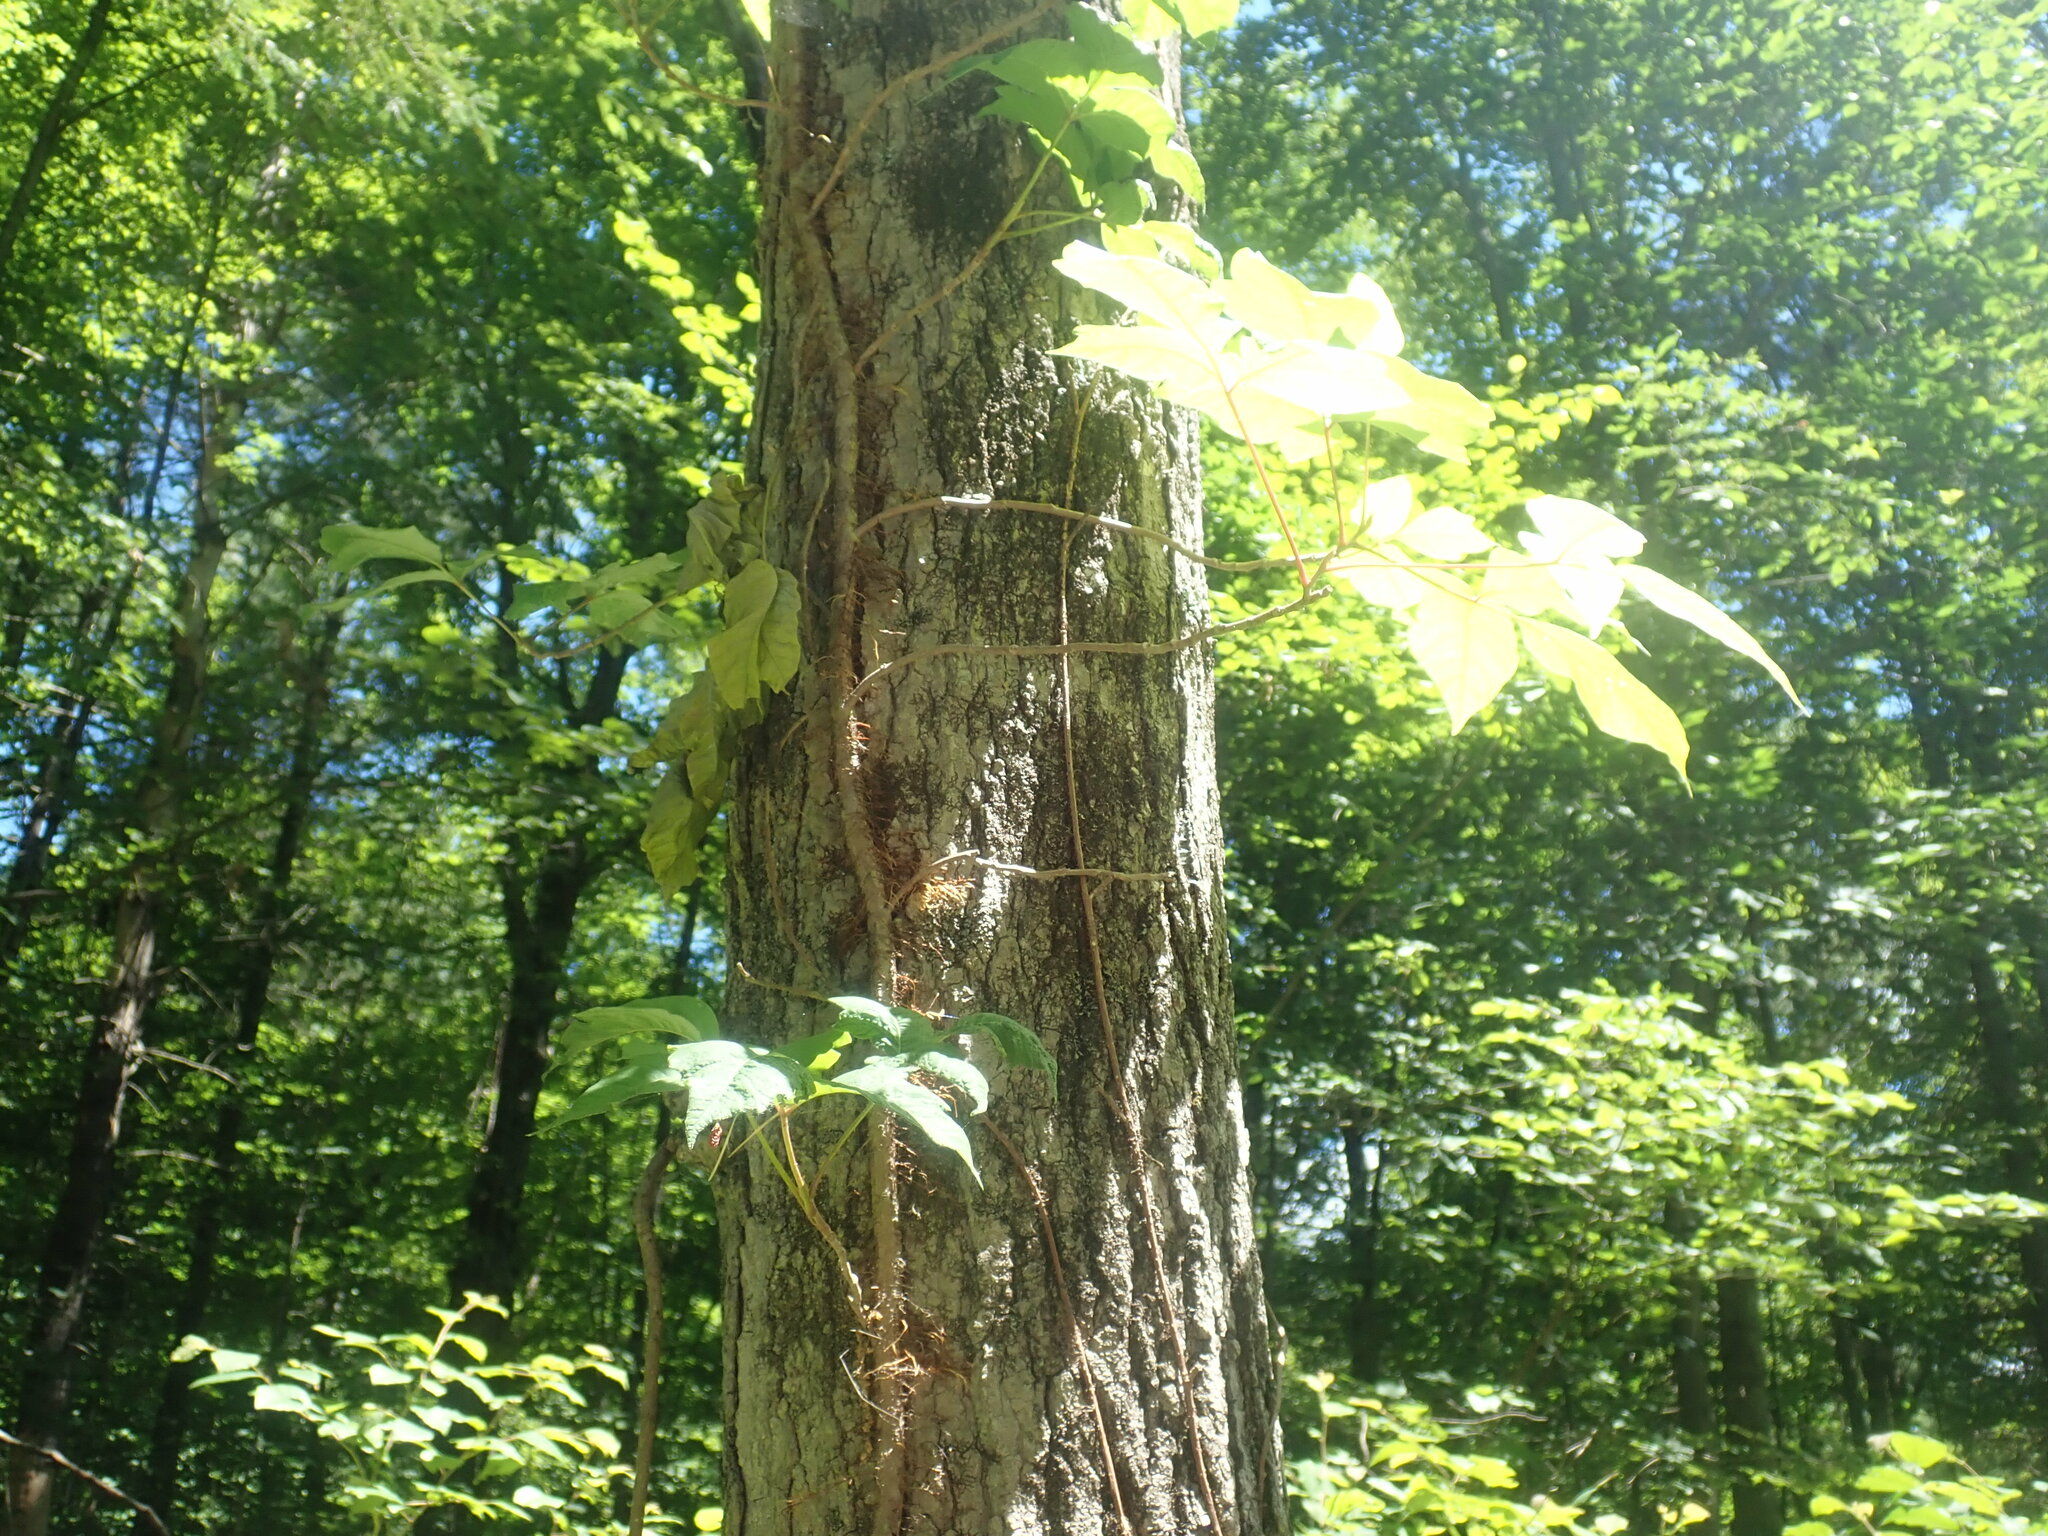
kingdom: Plantae
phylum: Tracheophyta
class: Magnoliopsida
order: Sapindales
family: Anacardiaceae
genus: Toxicodendron
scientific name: Toxicodendron radicans
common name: Poison ivy
